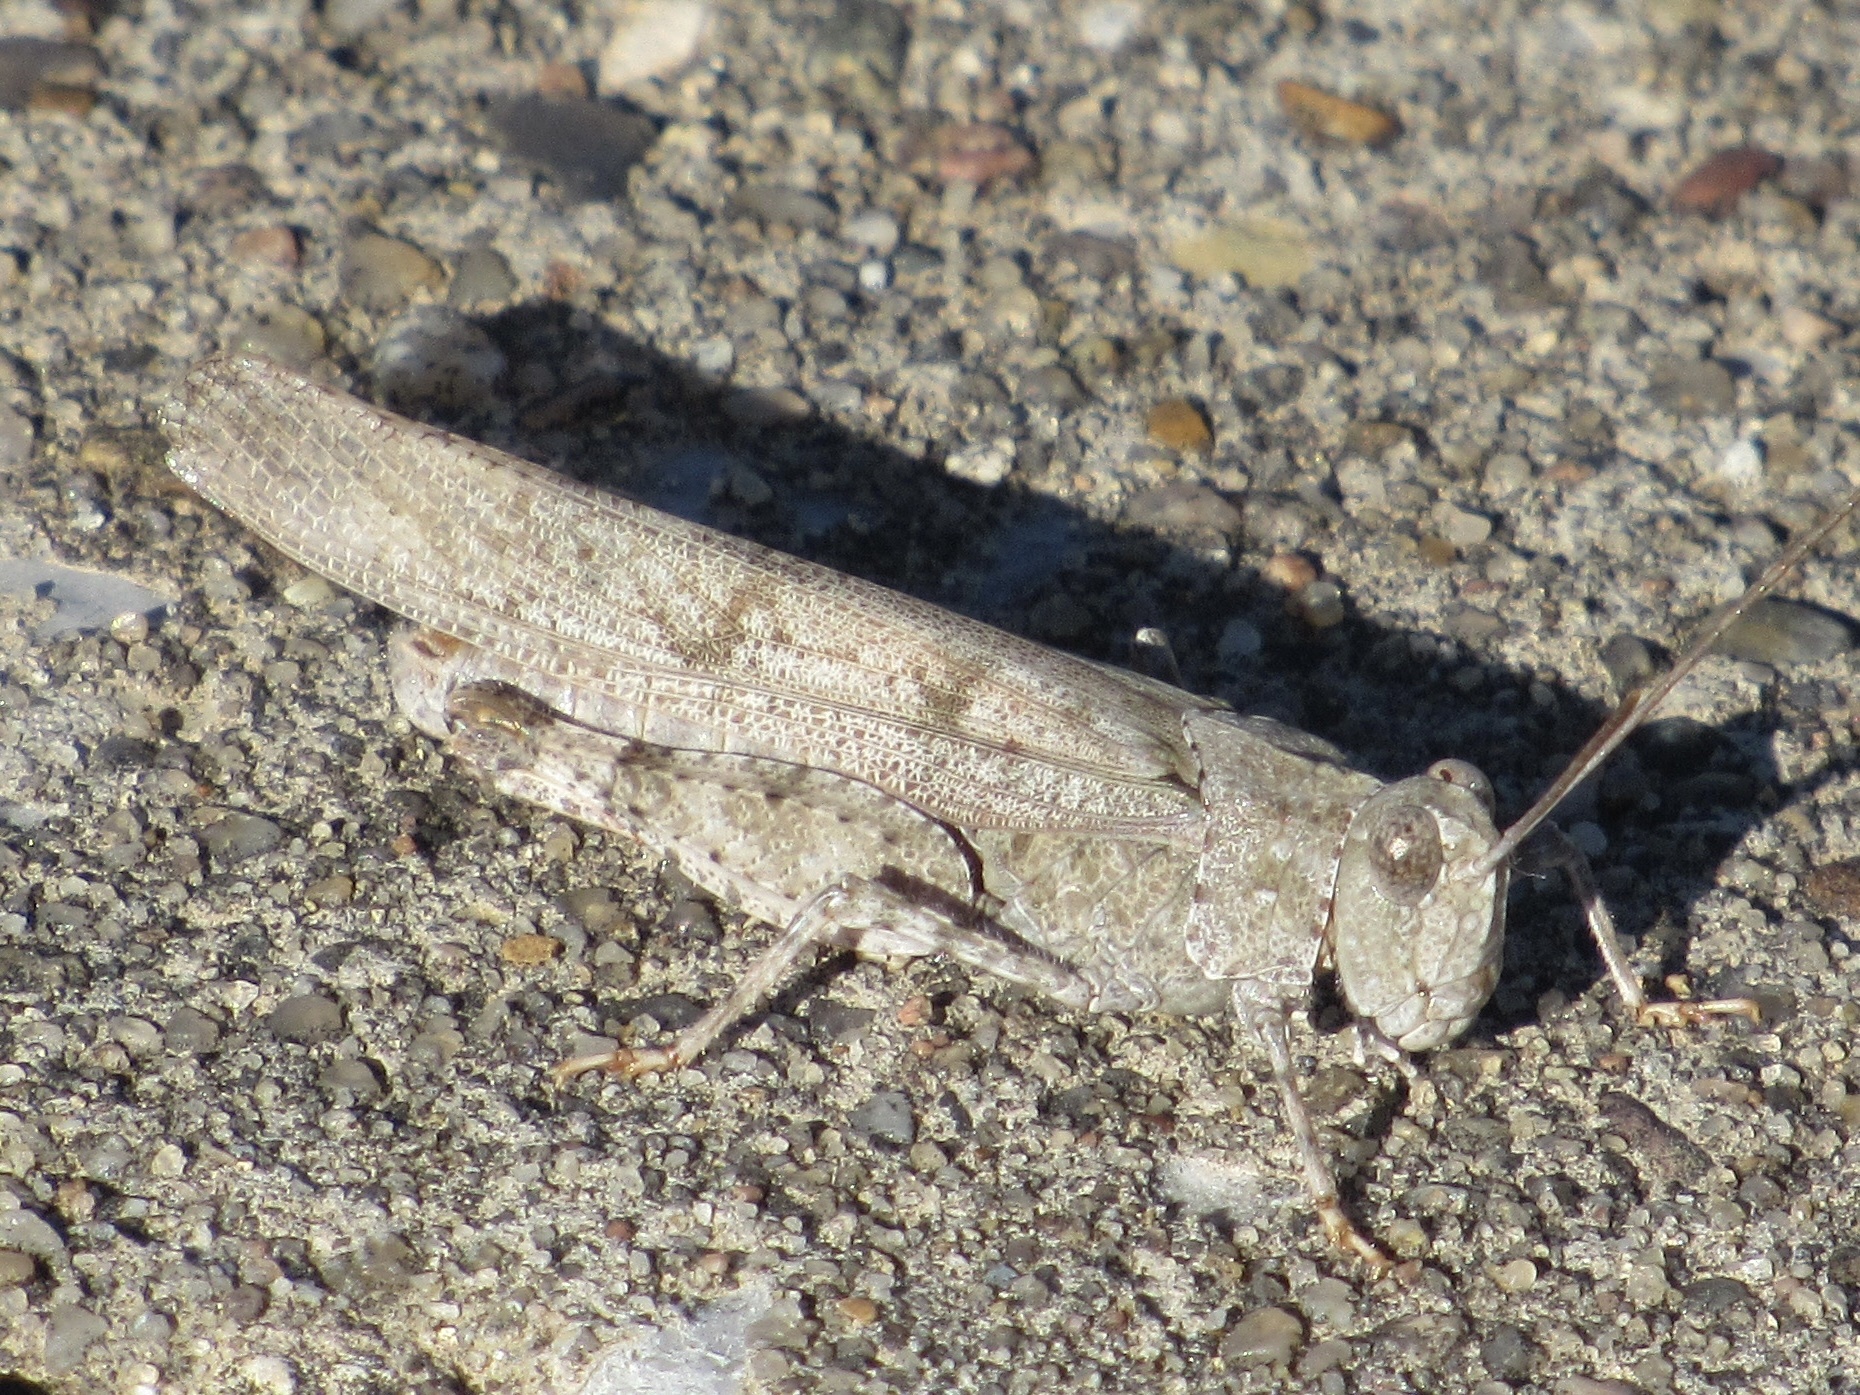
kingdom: Animalia
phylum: Arthropoda
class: Insecta
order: Orthoptera
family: Acrididae
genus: Trimerotropis
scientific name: Trimerotropis maritima
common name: Seaside locust
